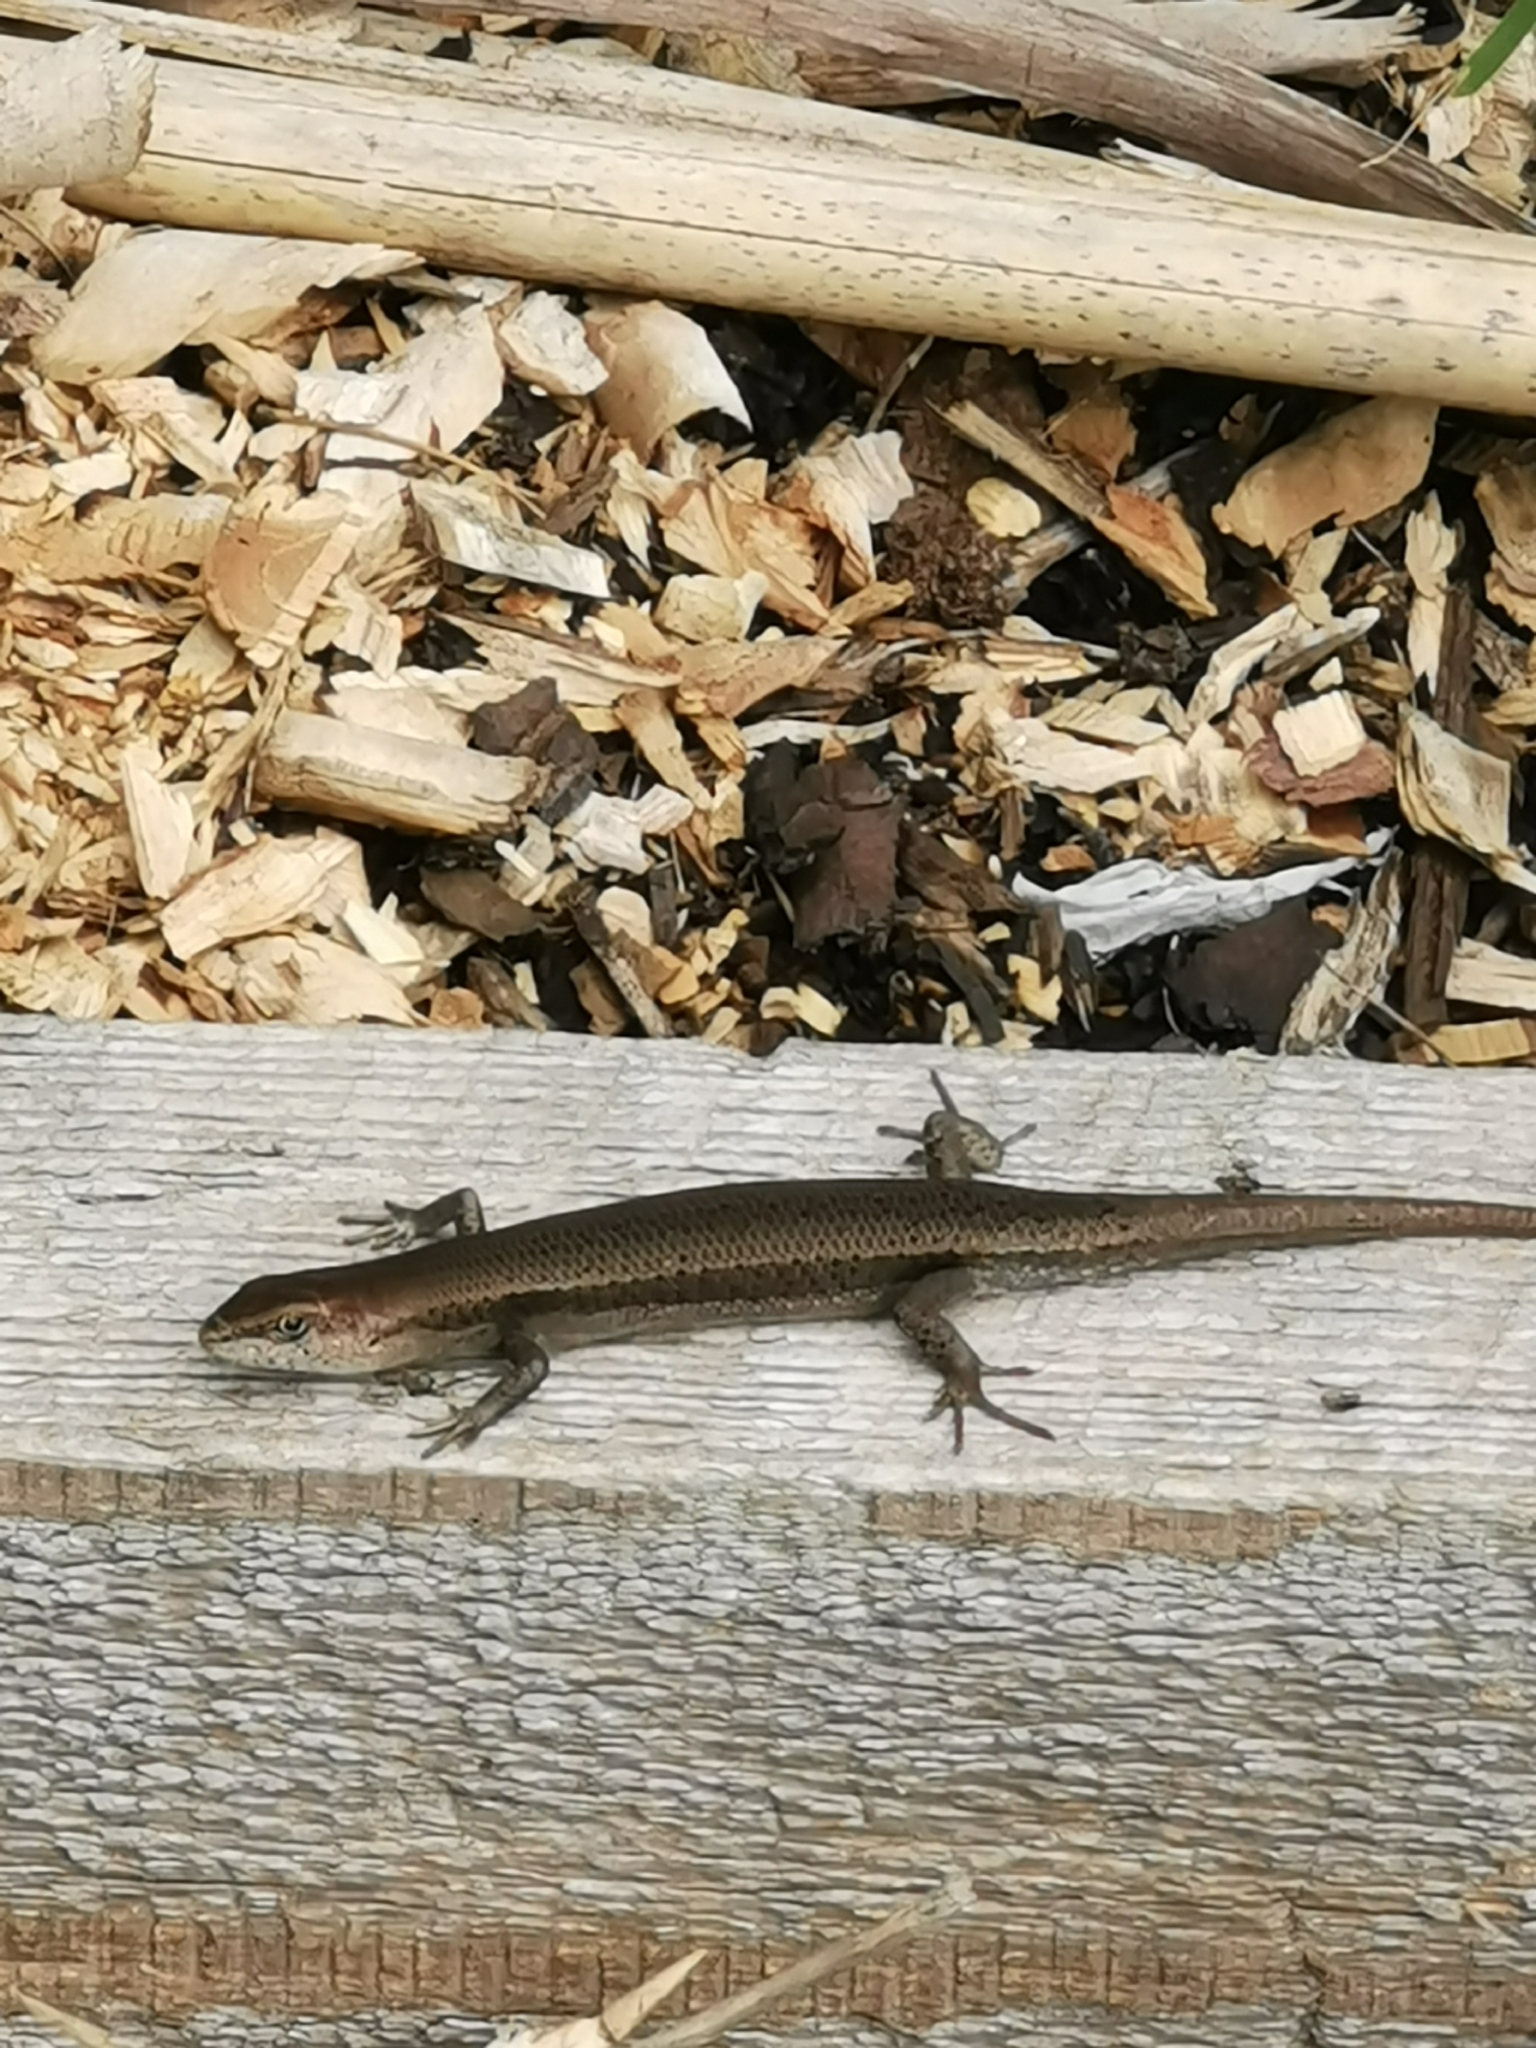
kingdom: Animalia
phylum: Chordata
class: Squamata
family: Scincidae
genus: Lampropholis
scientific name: Lampropholis guichenoti
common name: Garden skink
